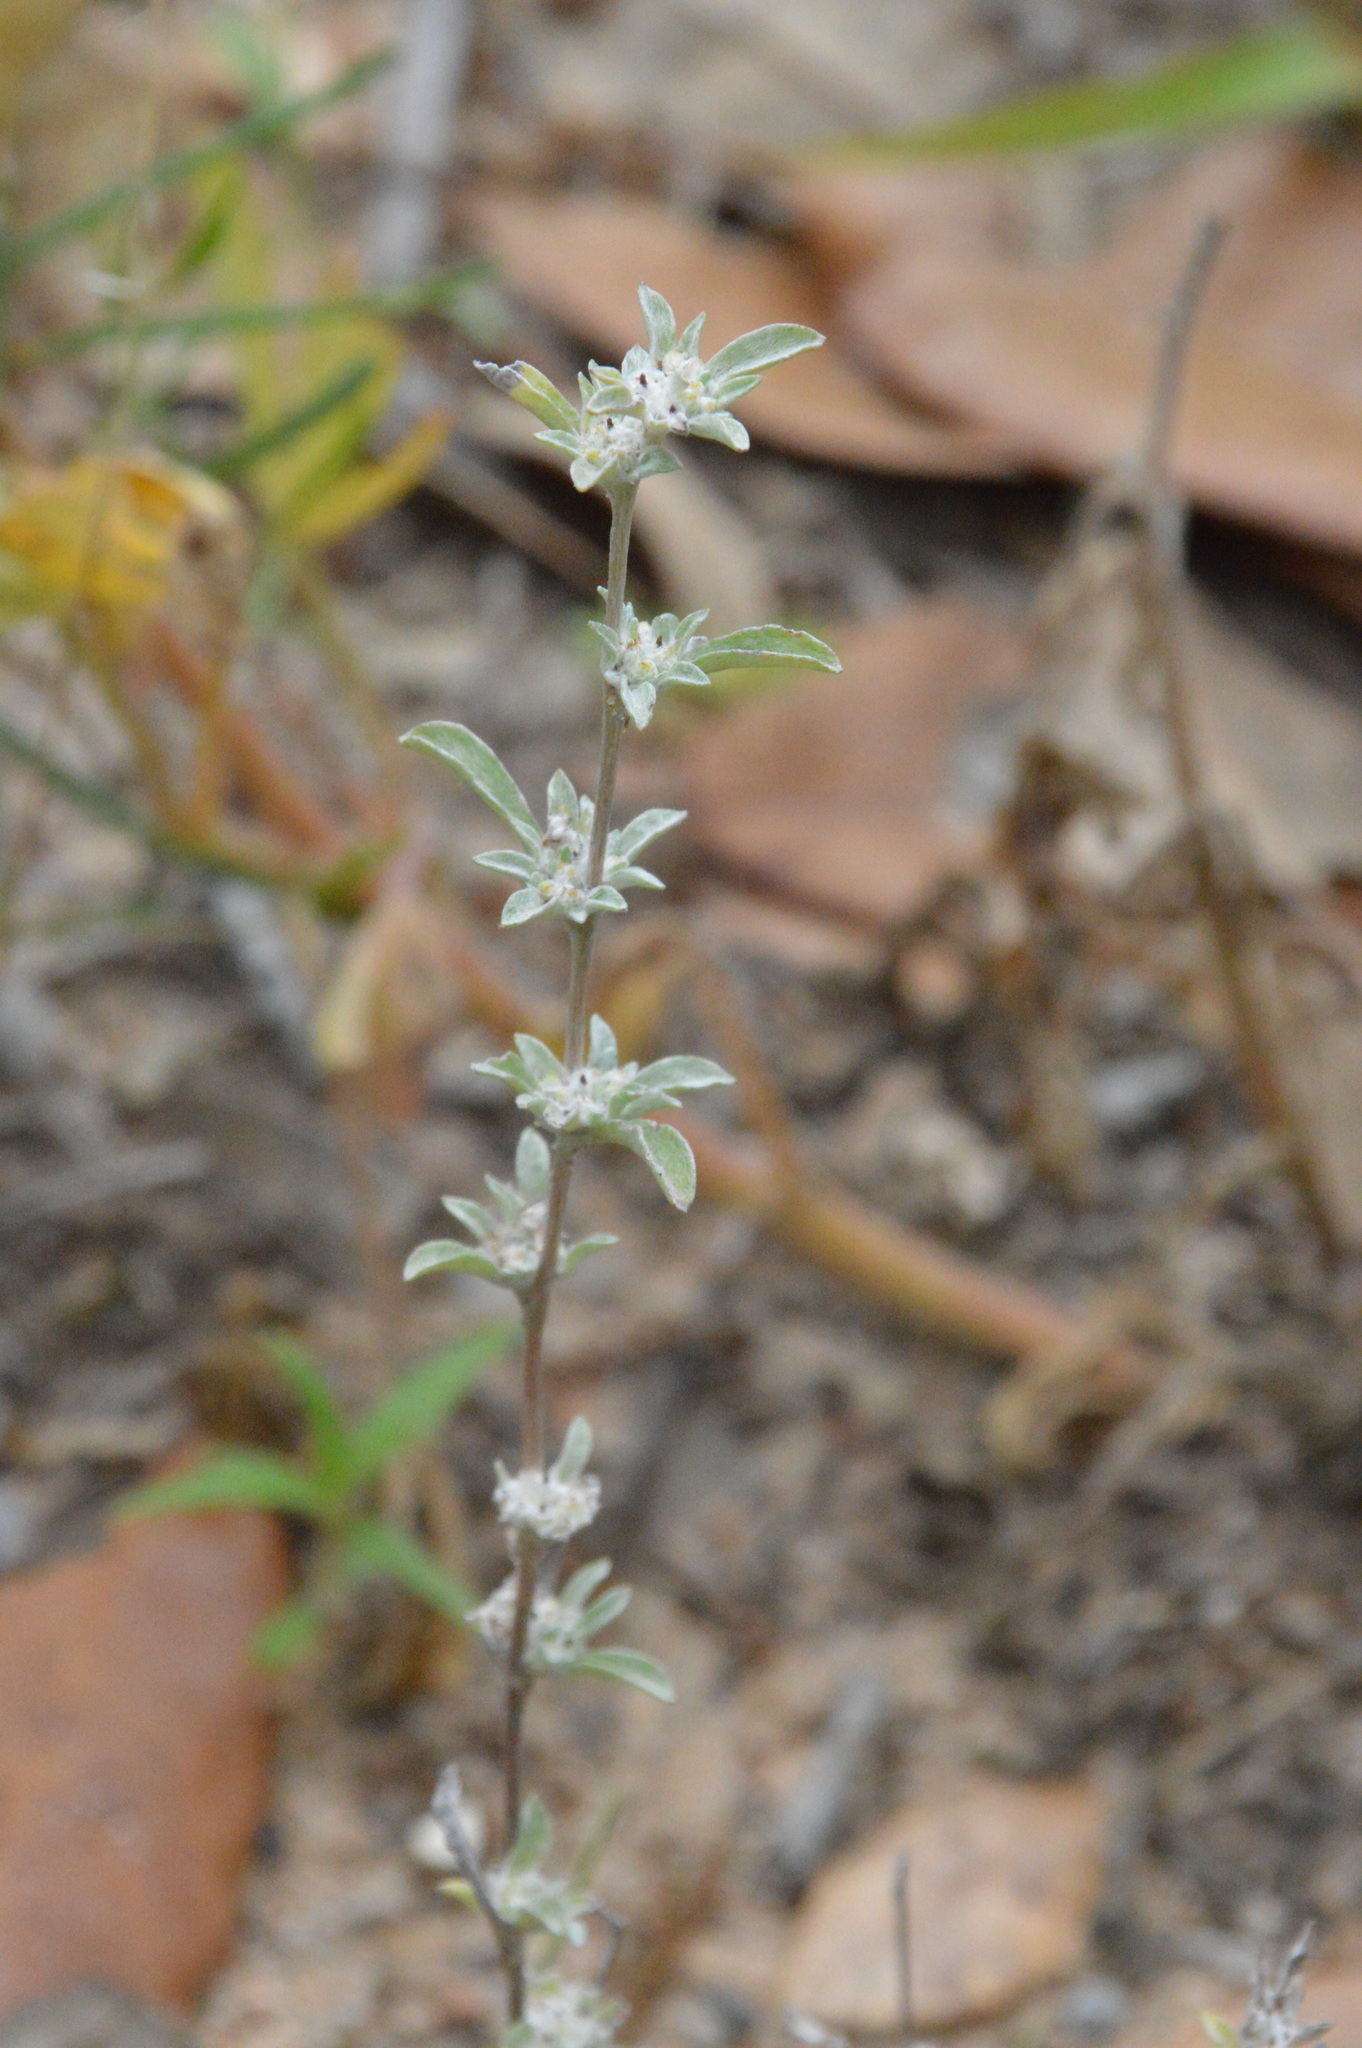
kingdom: Plantae
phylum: Tracheophyta
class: Magnoliopsida
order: Asterales
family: Asteraceae
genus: Diaperia
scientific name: Diaperia candida
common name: Silver rabbit-tobacco
